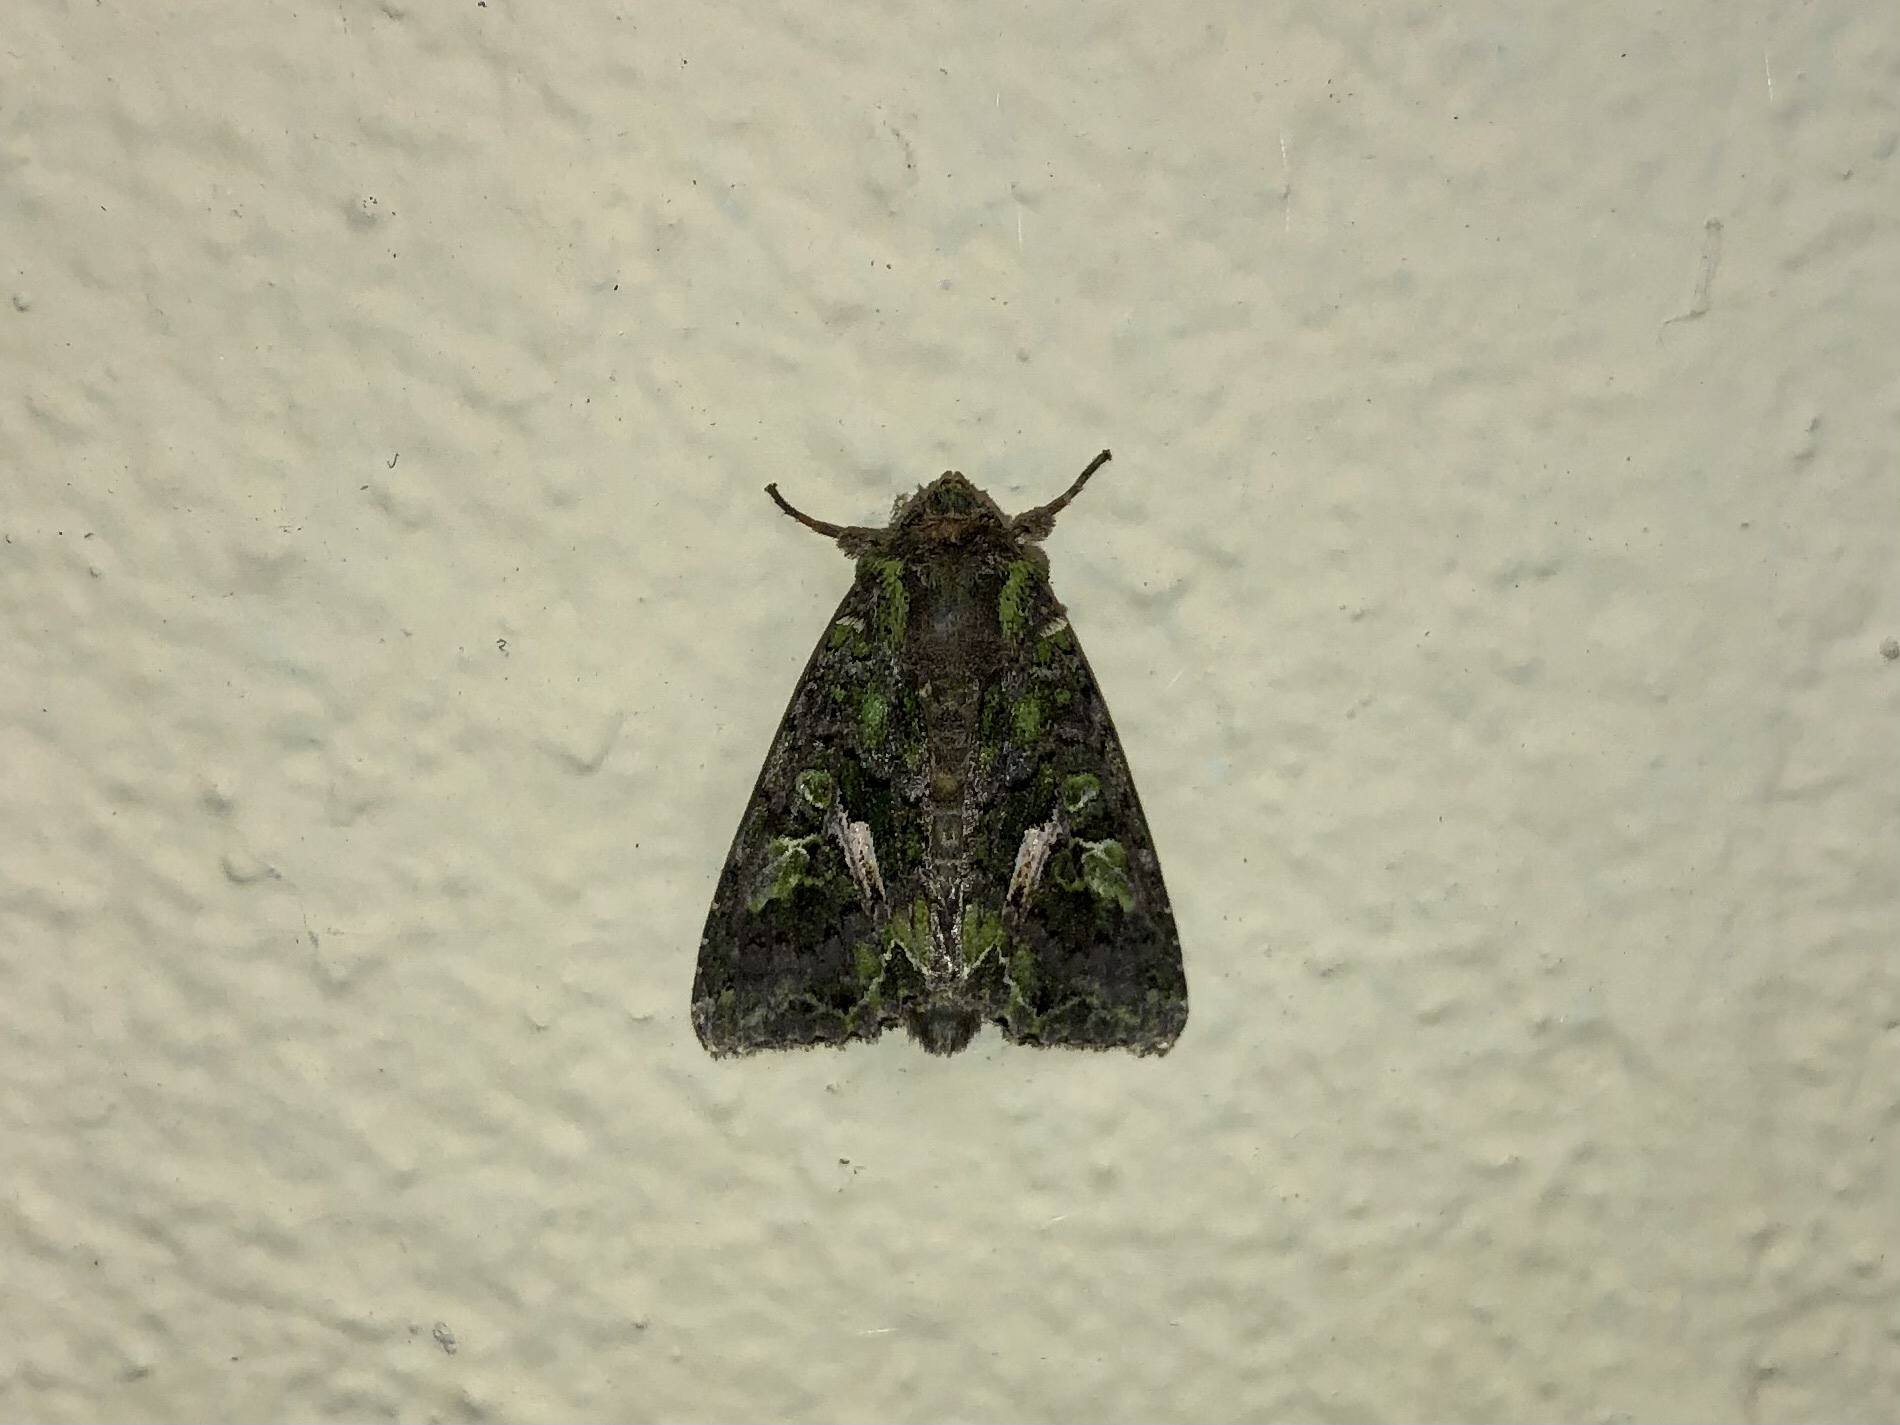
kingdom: Animalia
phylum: Arthropoda
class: Insecta
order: Lepidoptera
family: Noctuidae
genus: Trachea
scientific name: Trachea atriplicis
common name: Orache moth
